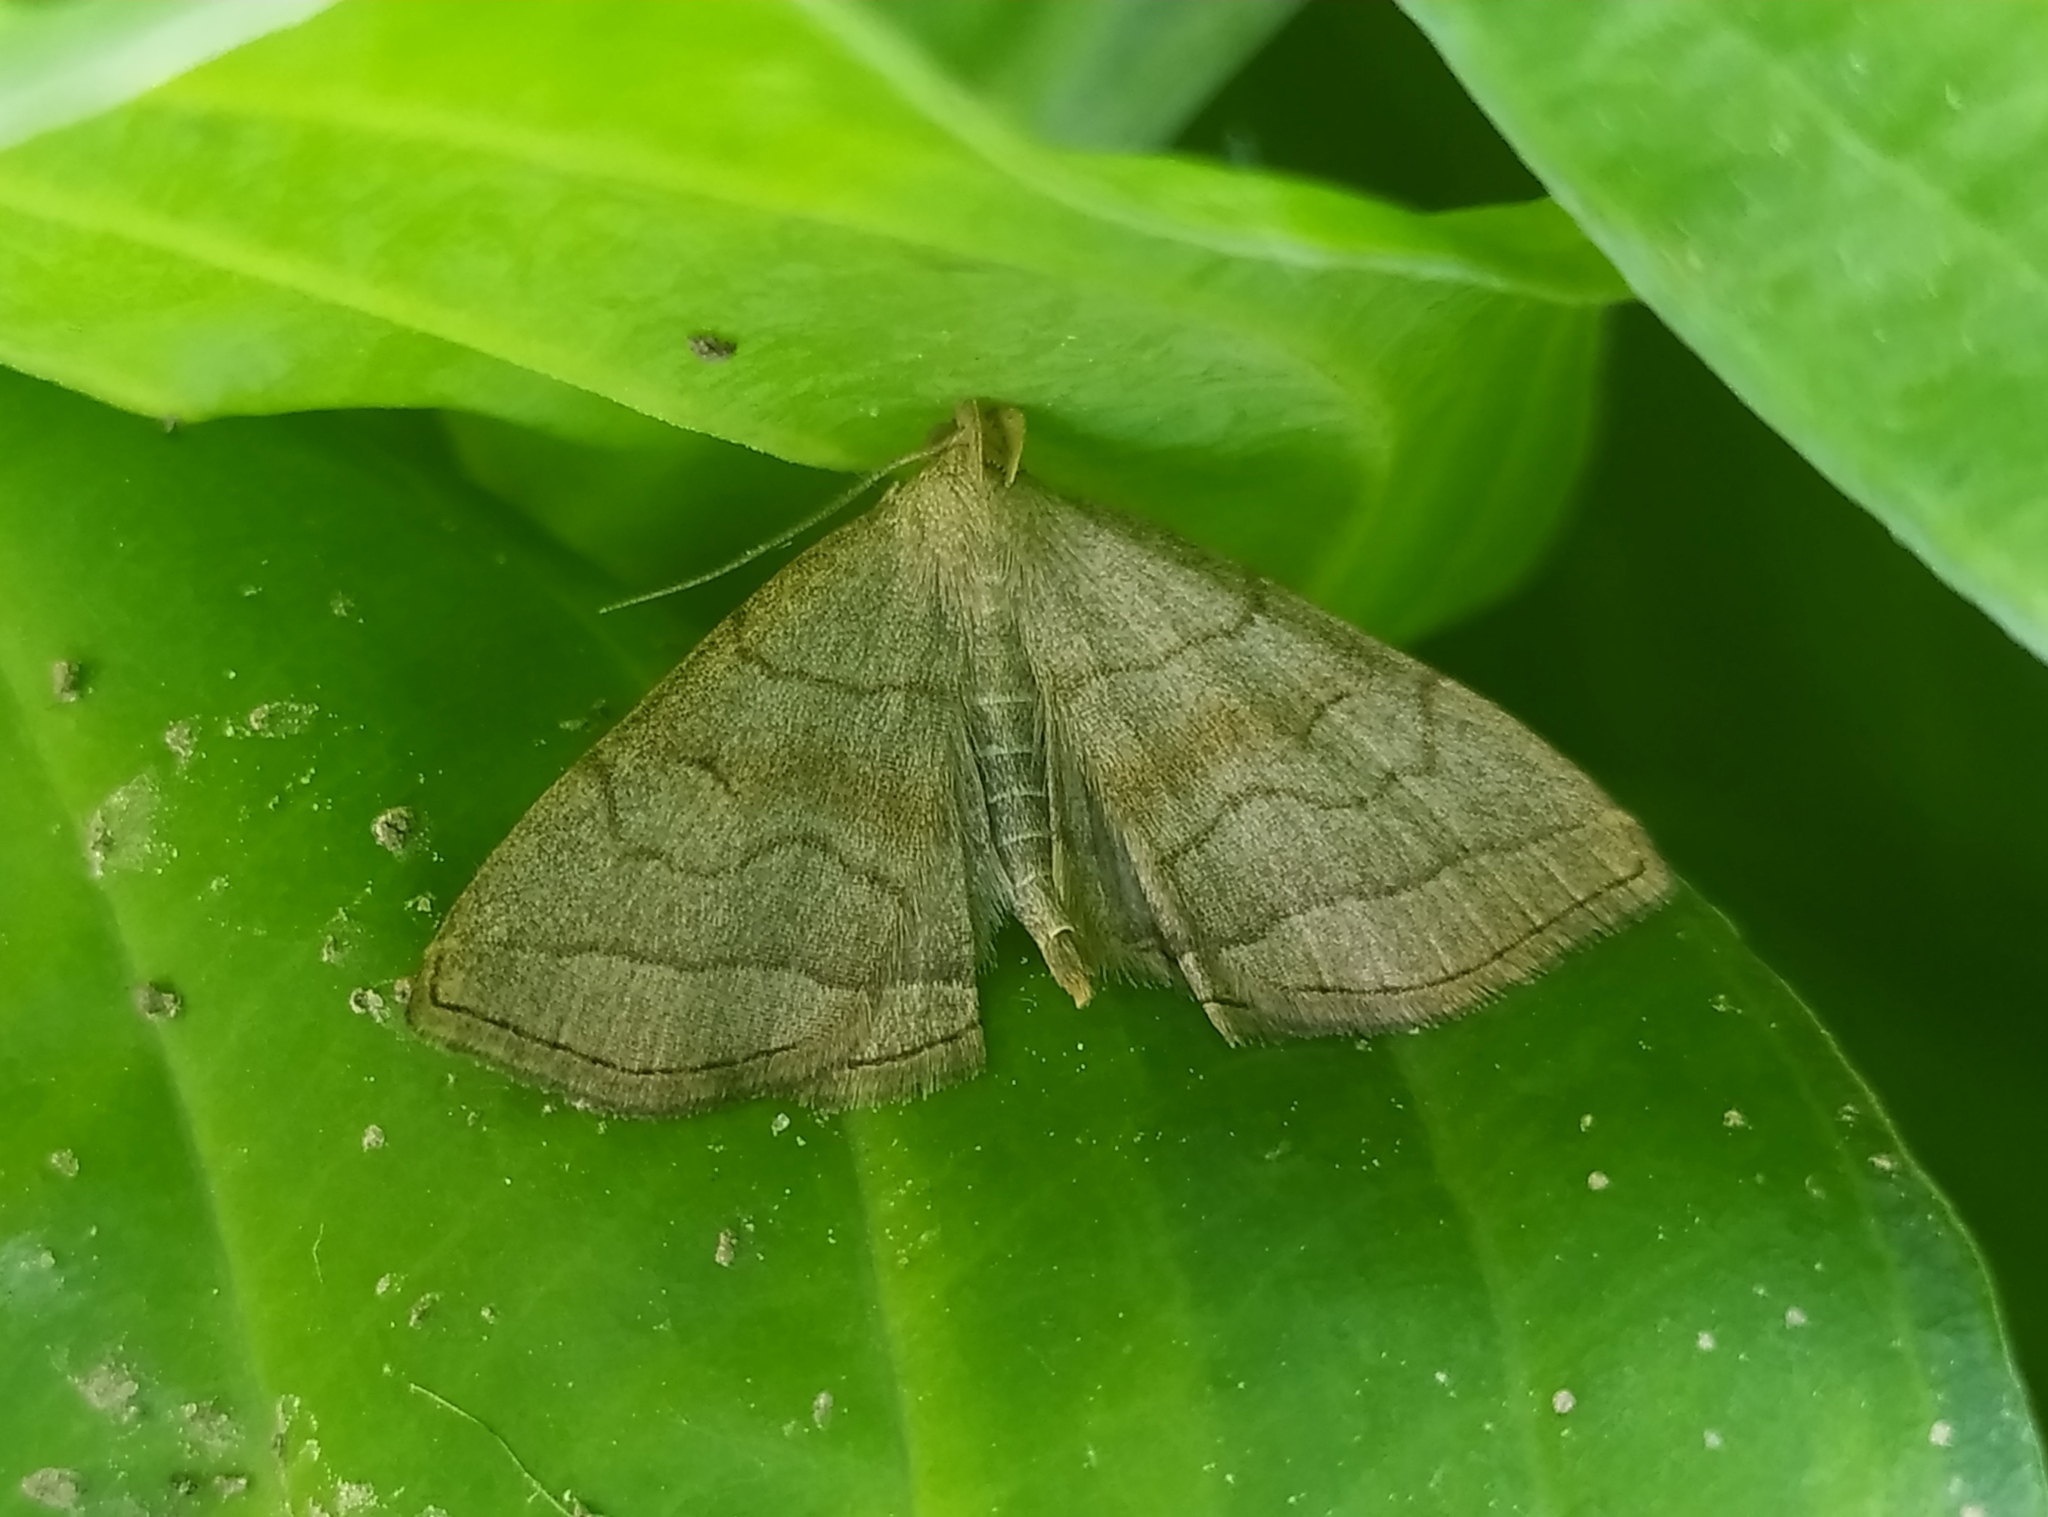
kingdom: Animalia
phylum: Arthropoda
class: Insecta
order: Lepidoptera
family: Erebidae
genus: Herminia
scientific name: Herminia tarsicrinalis
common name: Shaded fan-foot
